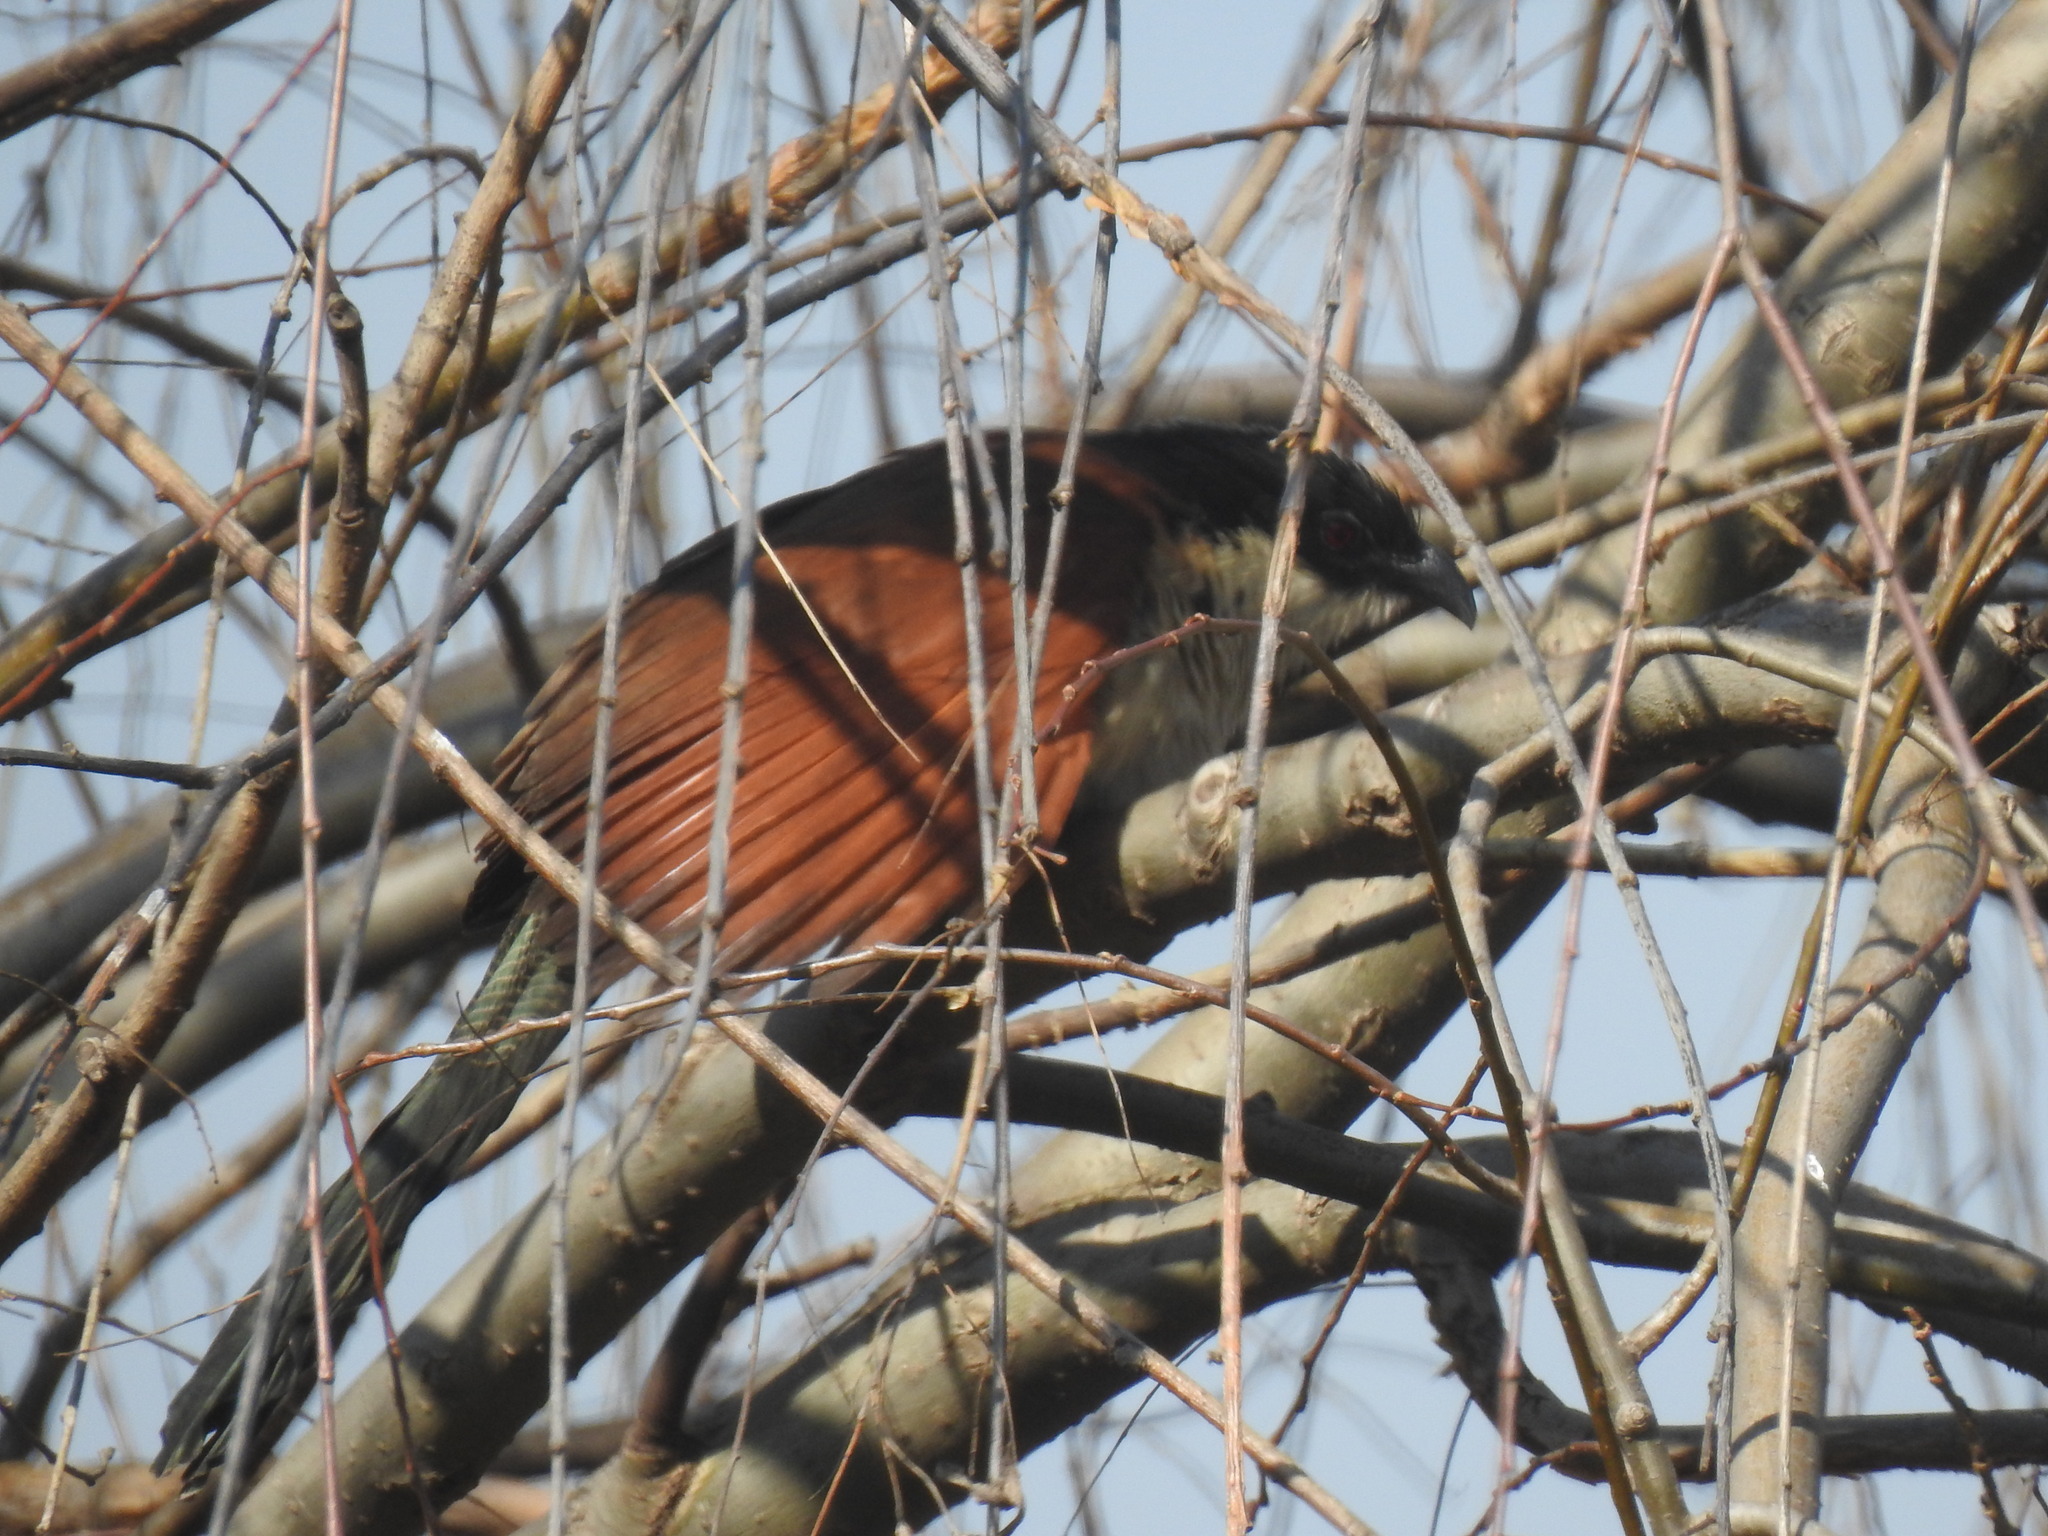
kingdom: Animalia
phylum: Chordata
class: Aves
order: Cuculiformes
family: Cuculidae
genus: Centropus
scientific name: Centropus superciliosus
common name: White-browed coucal
